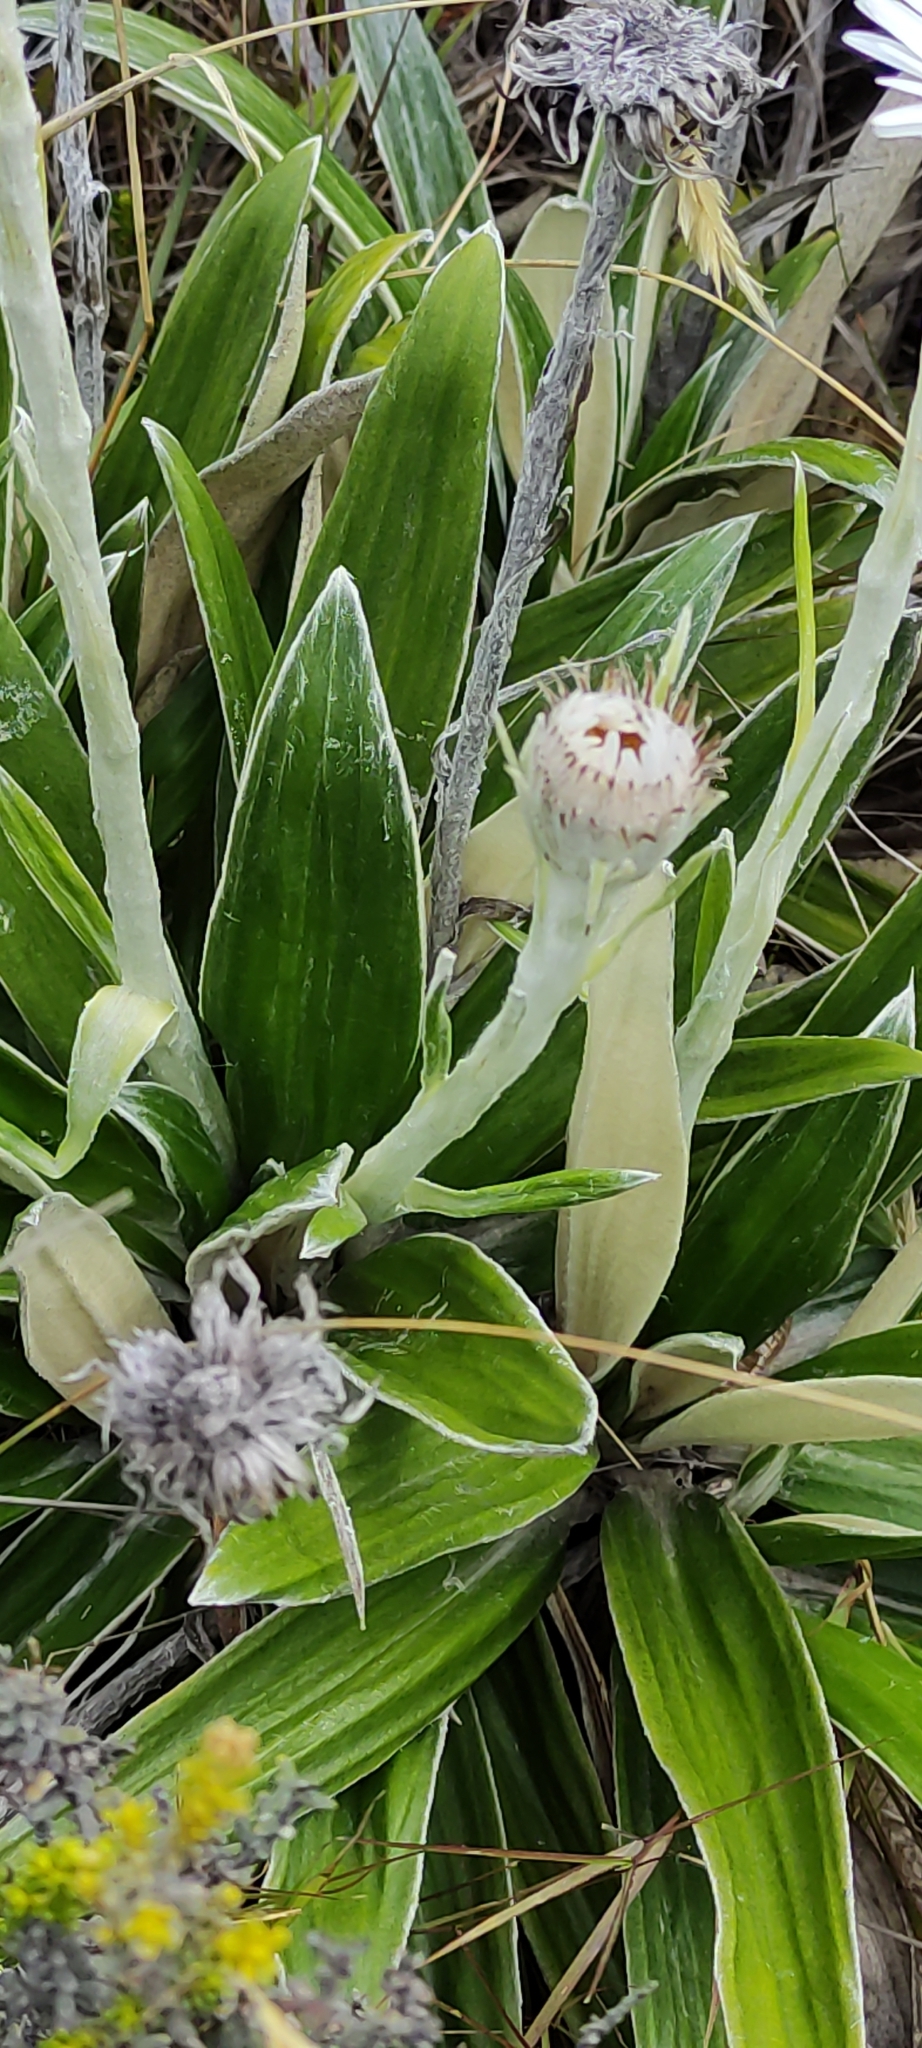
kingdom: Plantae
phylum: Tracheophyta
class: Magnoliopsida
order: Asterales
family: Asteraceae
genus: Celmisia
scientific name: Celmisia spectabilis
